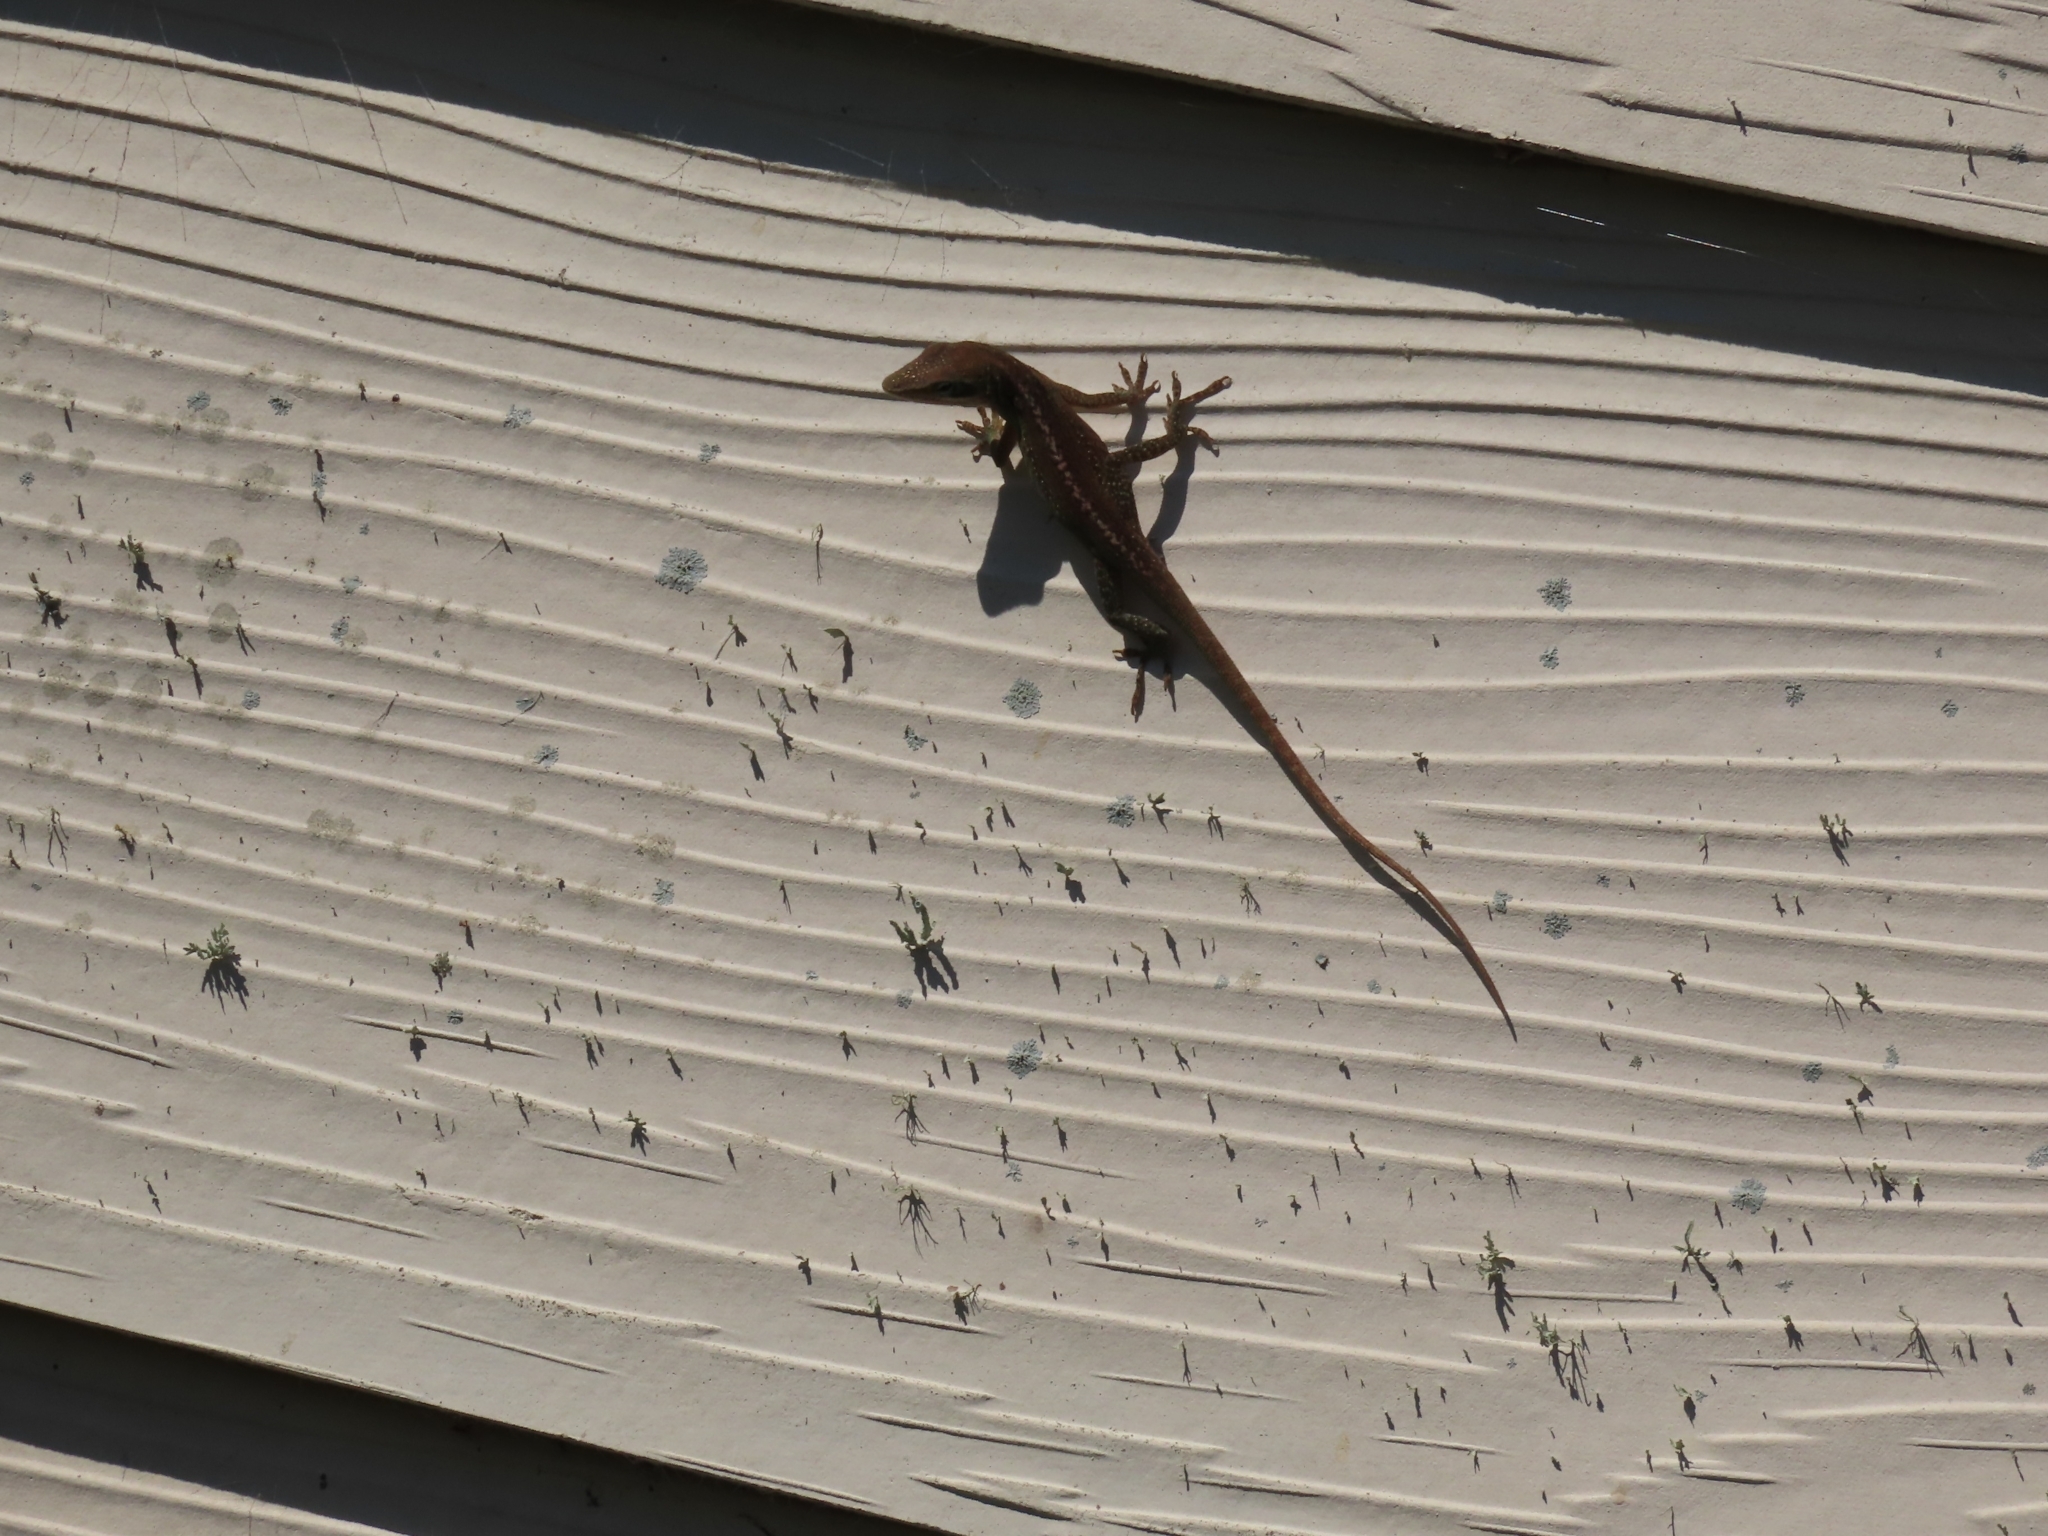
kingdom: Animalia
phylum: Chordata
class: Squamata
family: Dactyloidae
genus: Anolis
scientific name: Anolis carolinensis
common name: Green anole
